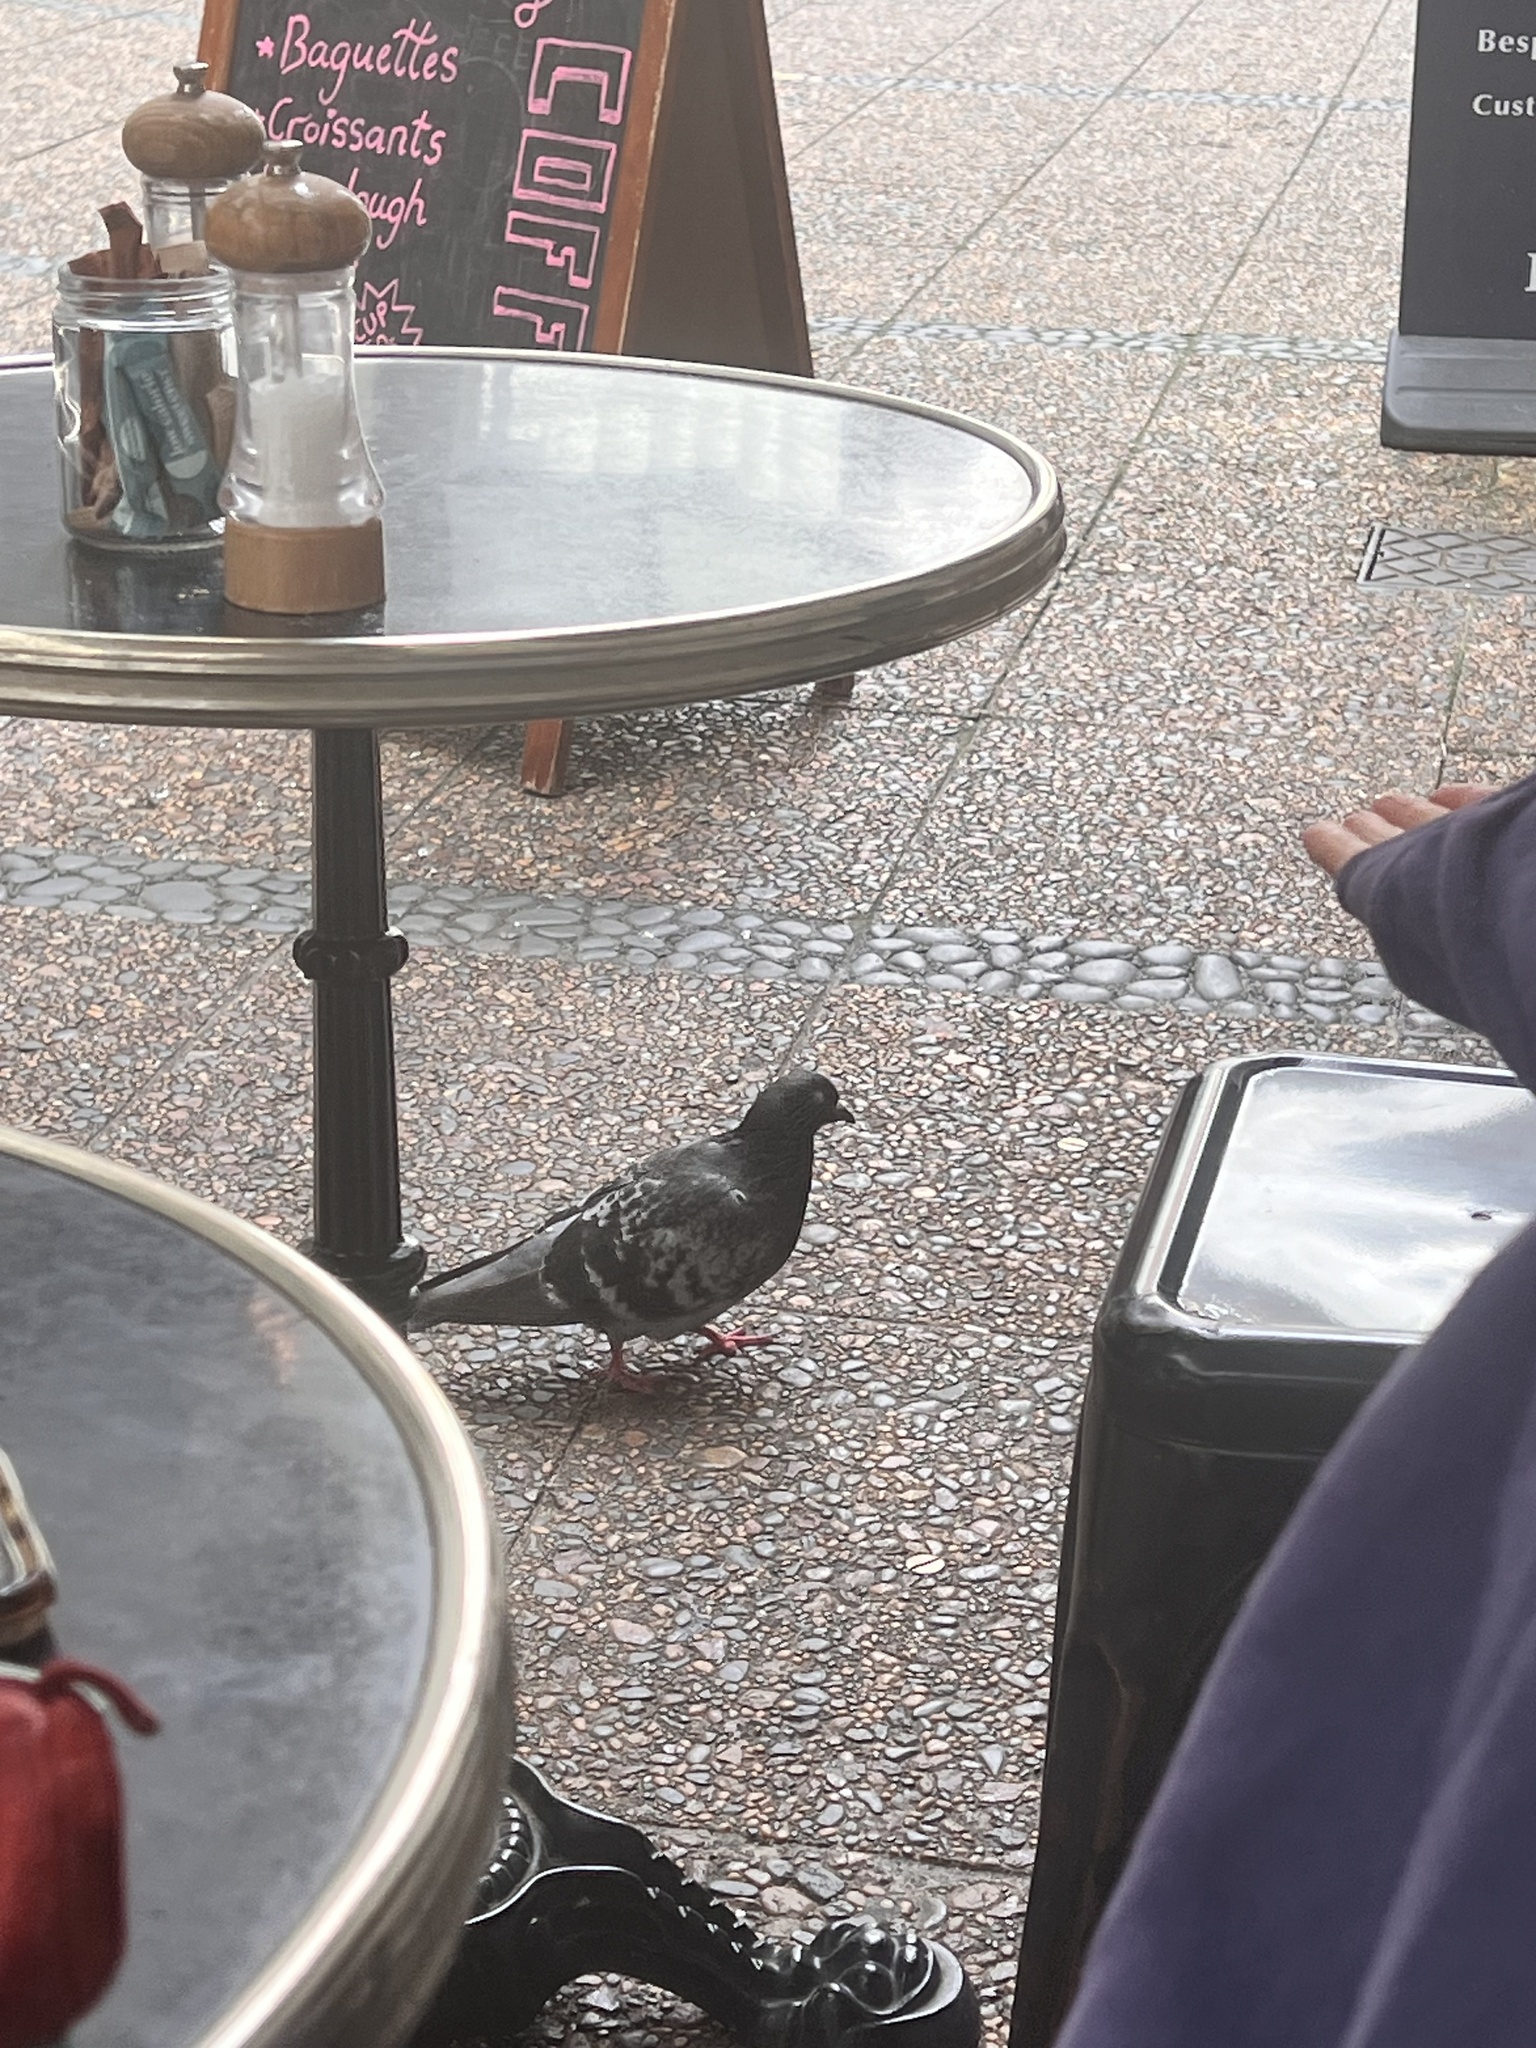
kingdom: Animalia
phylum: Chordata
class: Aves
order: Columbiformes
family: Columbidae
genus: Columba
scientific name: Columba livia
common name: Rock pigeon
